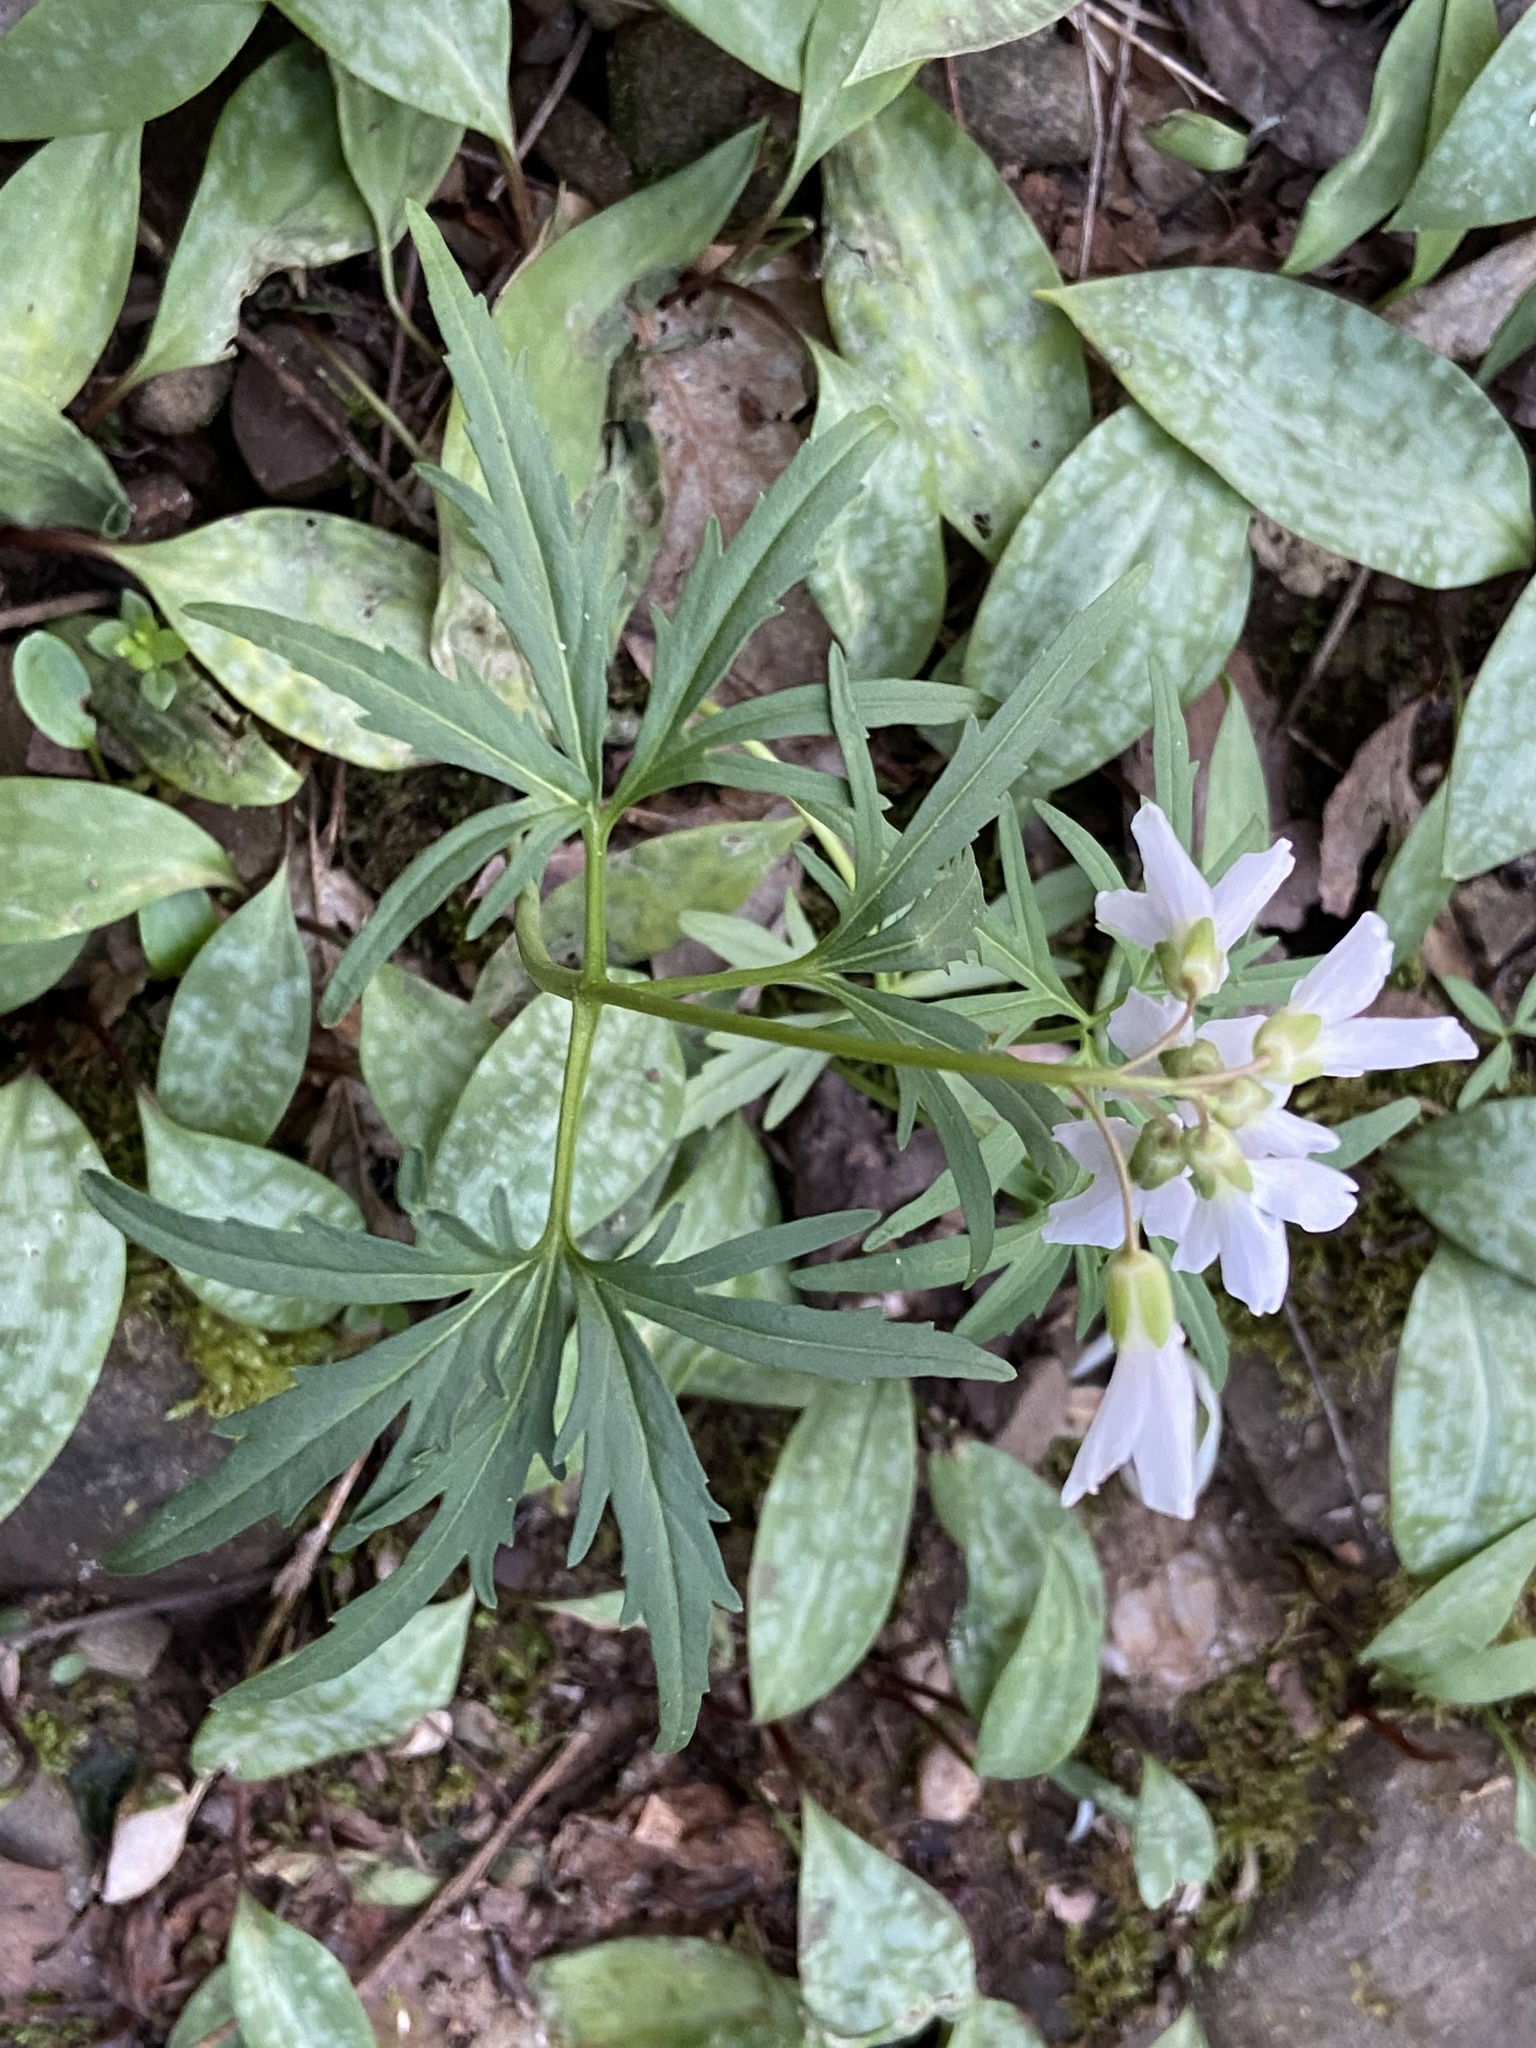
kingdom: Plantae
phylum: Tracheophyta
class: Magnoliopsida
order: Brassicales
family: Brassicaceae
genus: Cardamine
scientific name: Cardamine concatenata
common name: Cut-leaf toothcup
